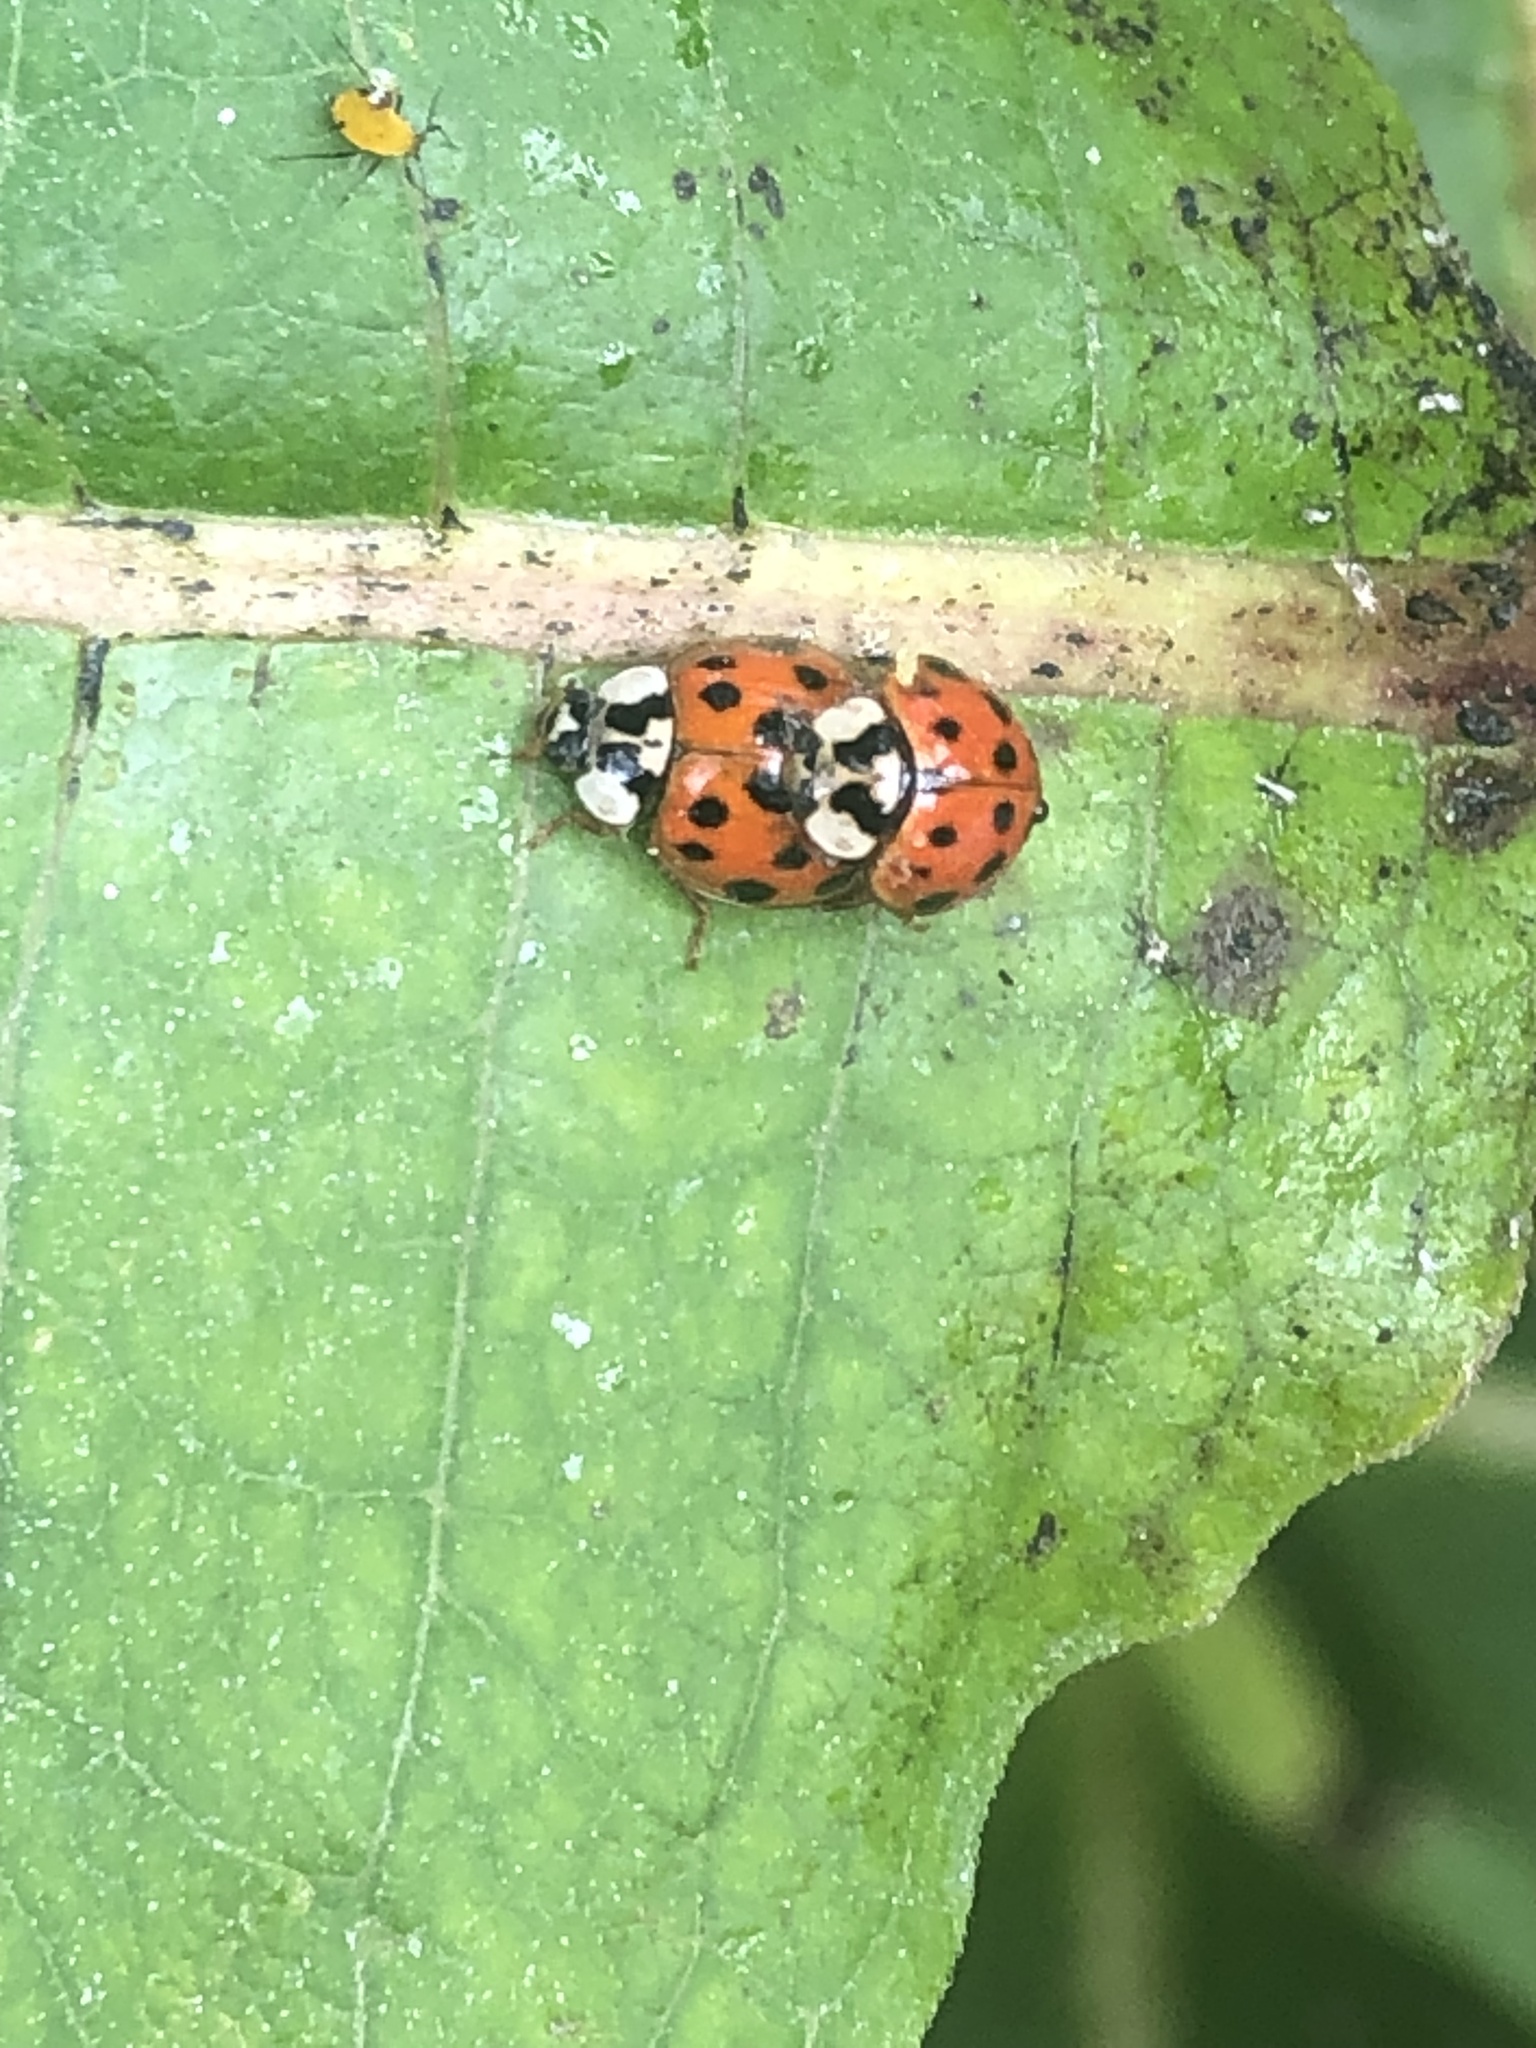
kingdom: Animalia
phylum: Arthropoda
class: Insecta
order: Coleoptera
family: Coccinellidae
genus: Harmonia
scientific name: Harmonia axyridis
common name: Harlequin ladybird
